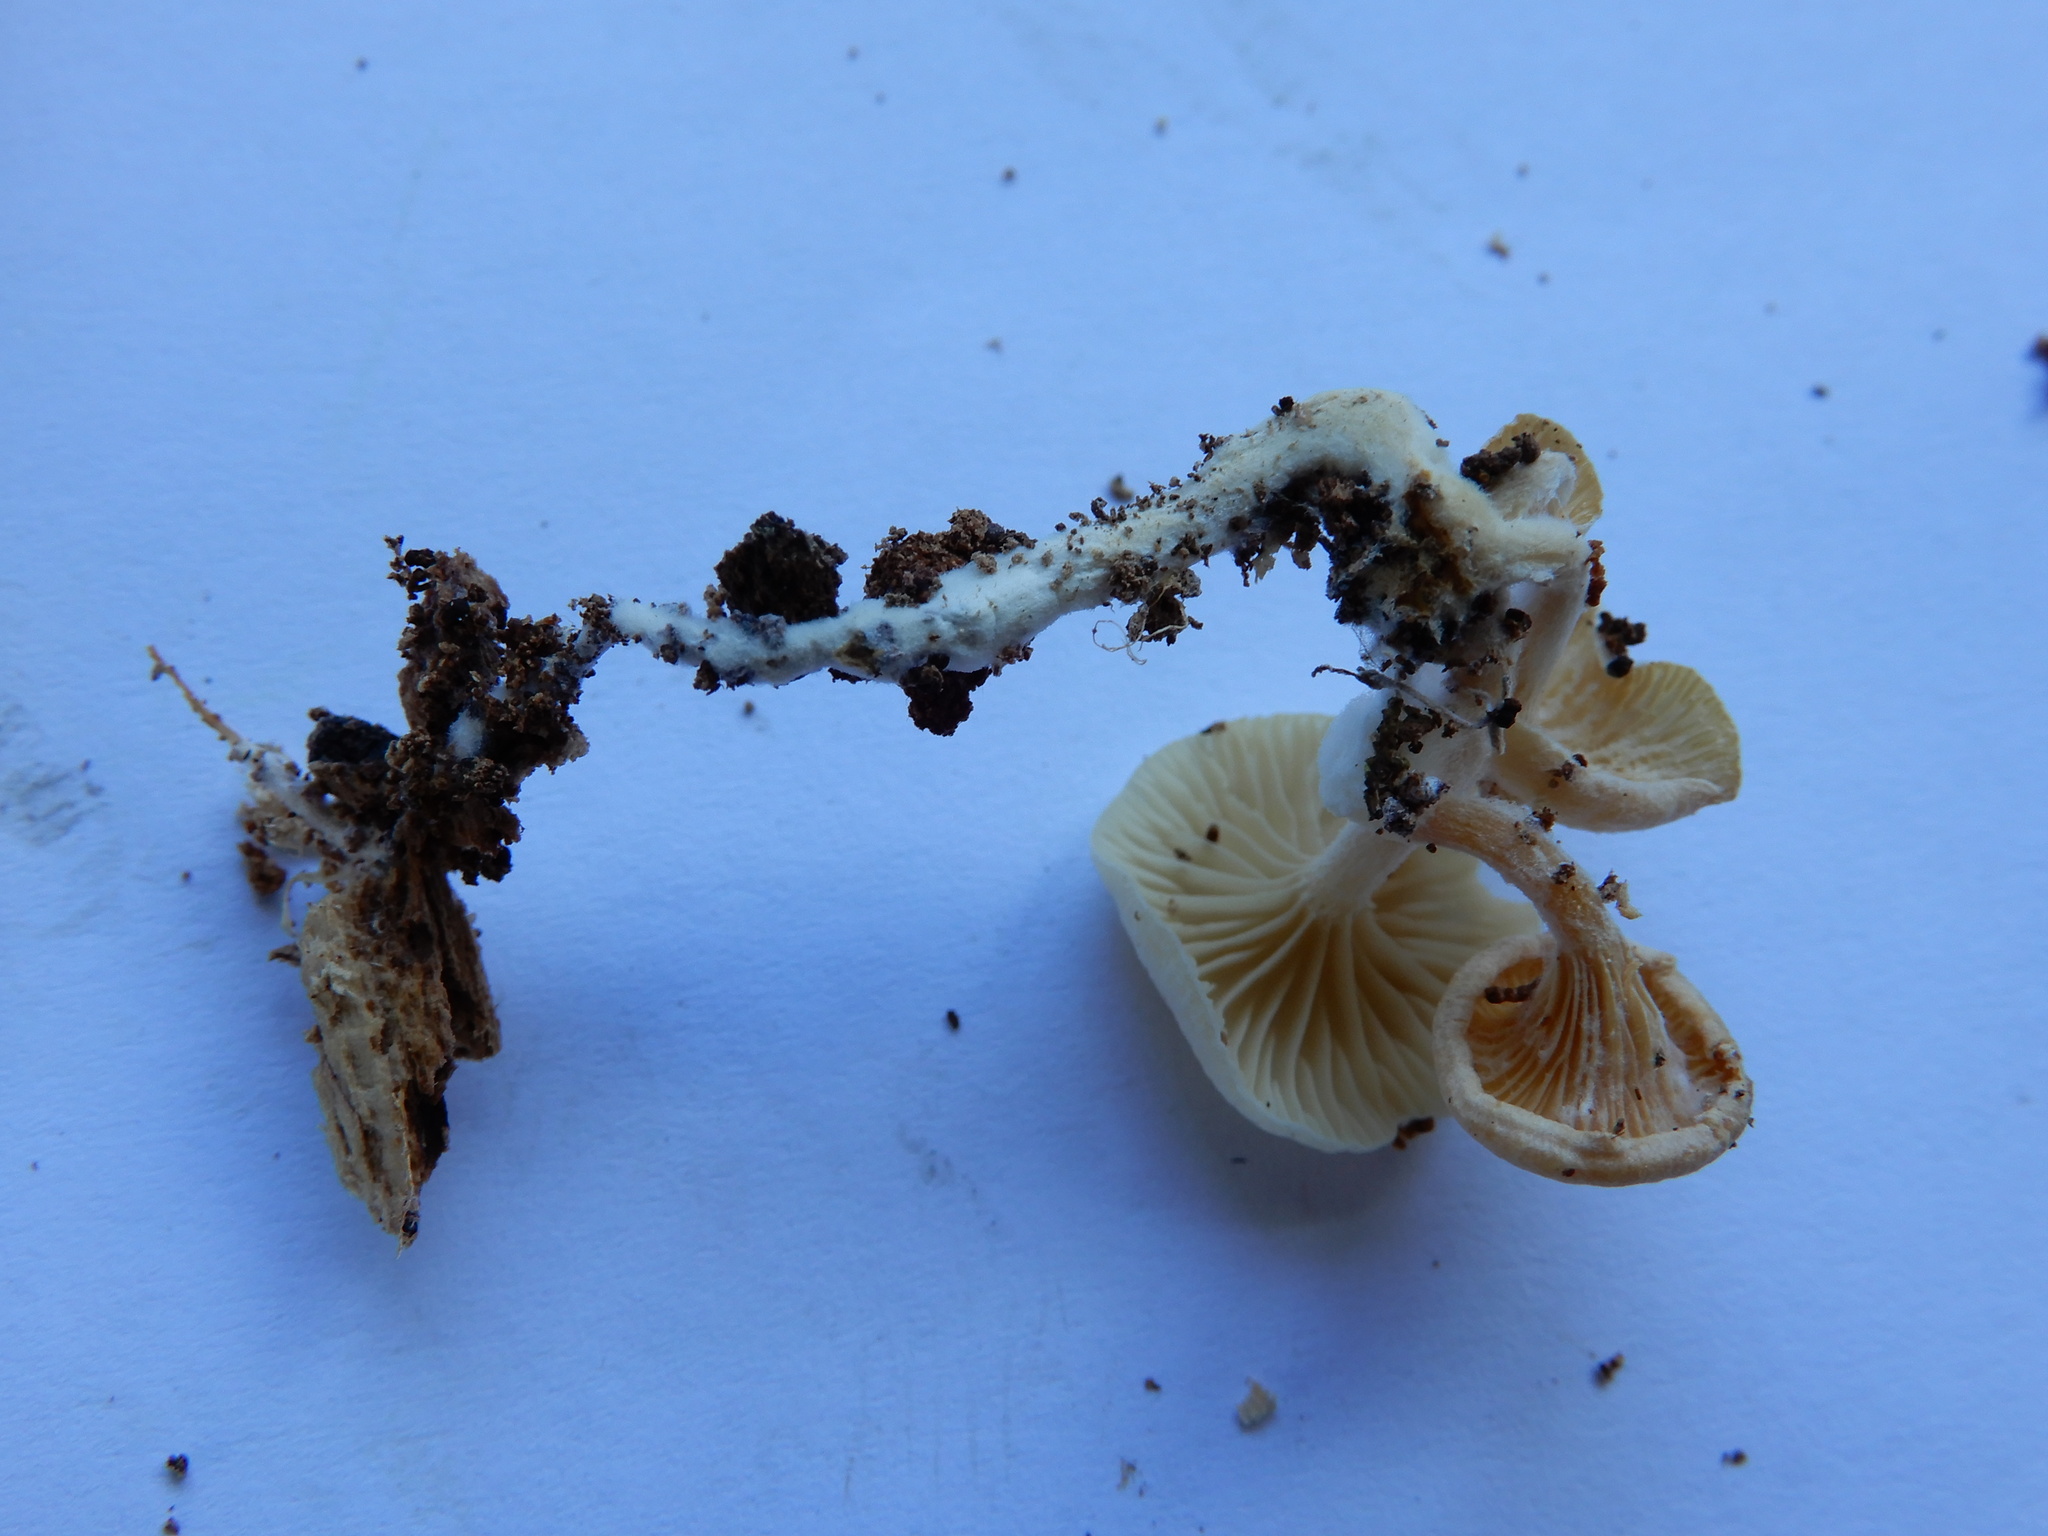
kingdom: Fungi
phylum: Basidiomycota
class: Agaricomycetes
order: Agaricales
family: Tricholomataceae
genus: Rhizocybe
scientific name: Rhizocybe albida
